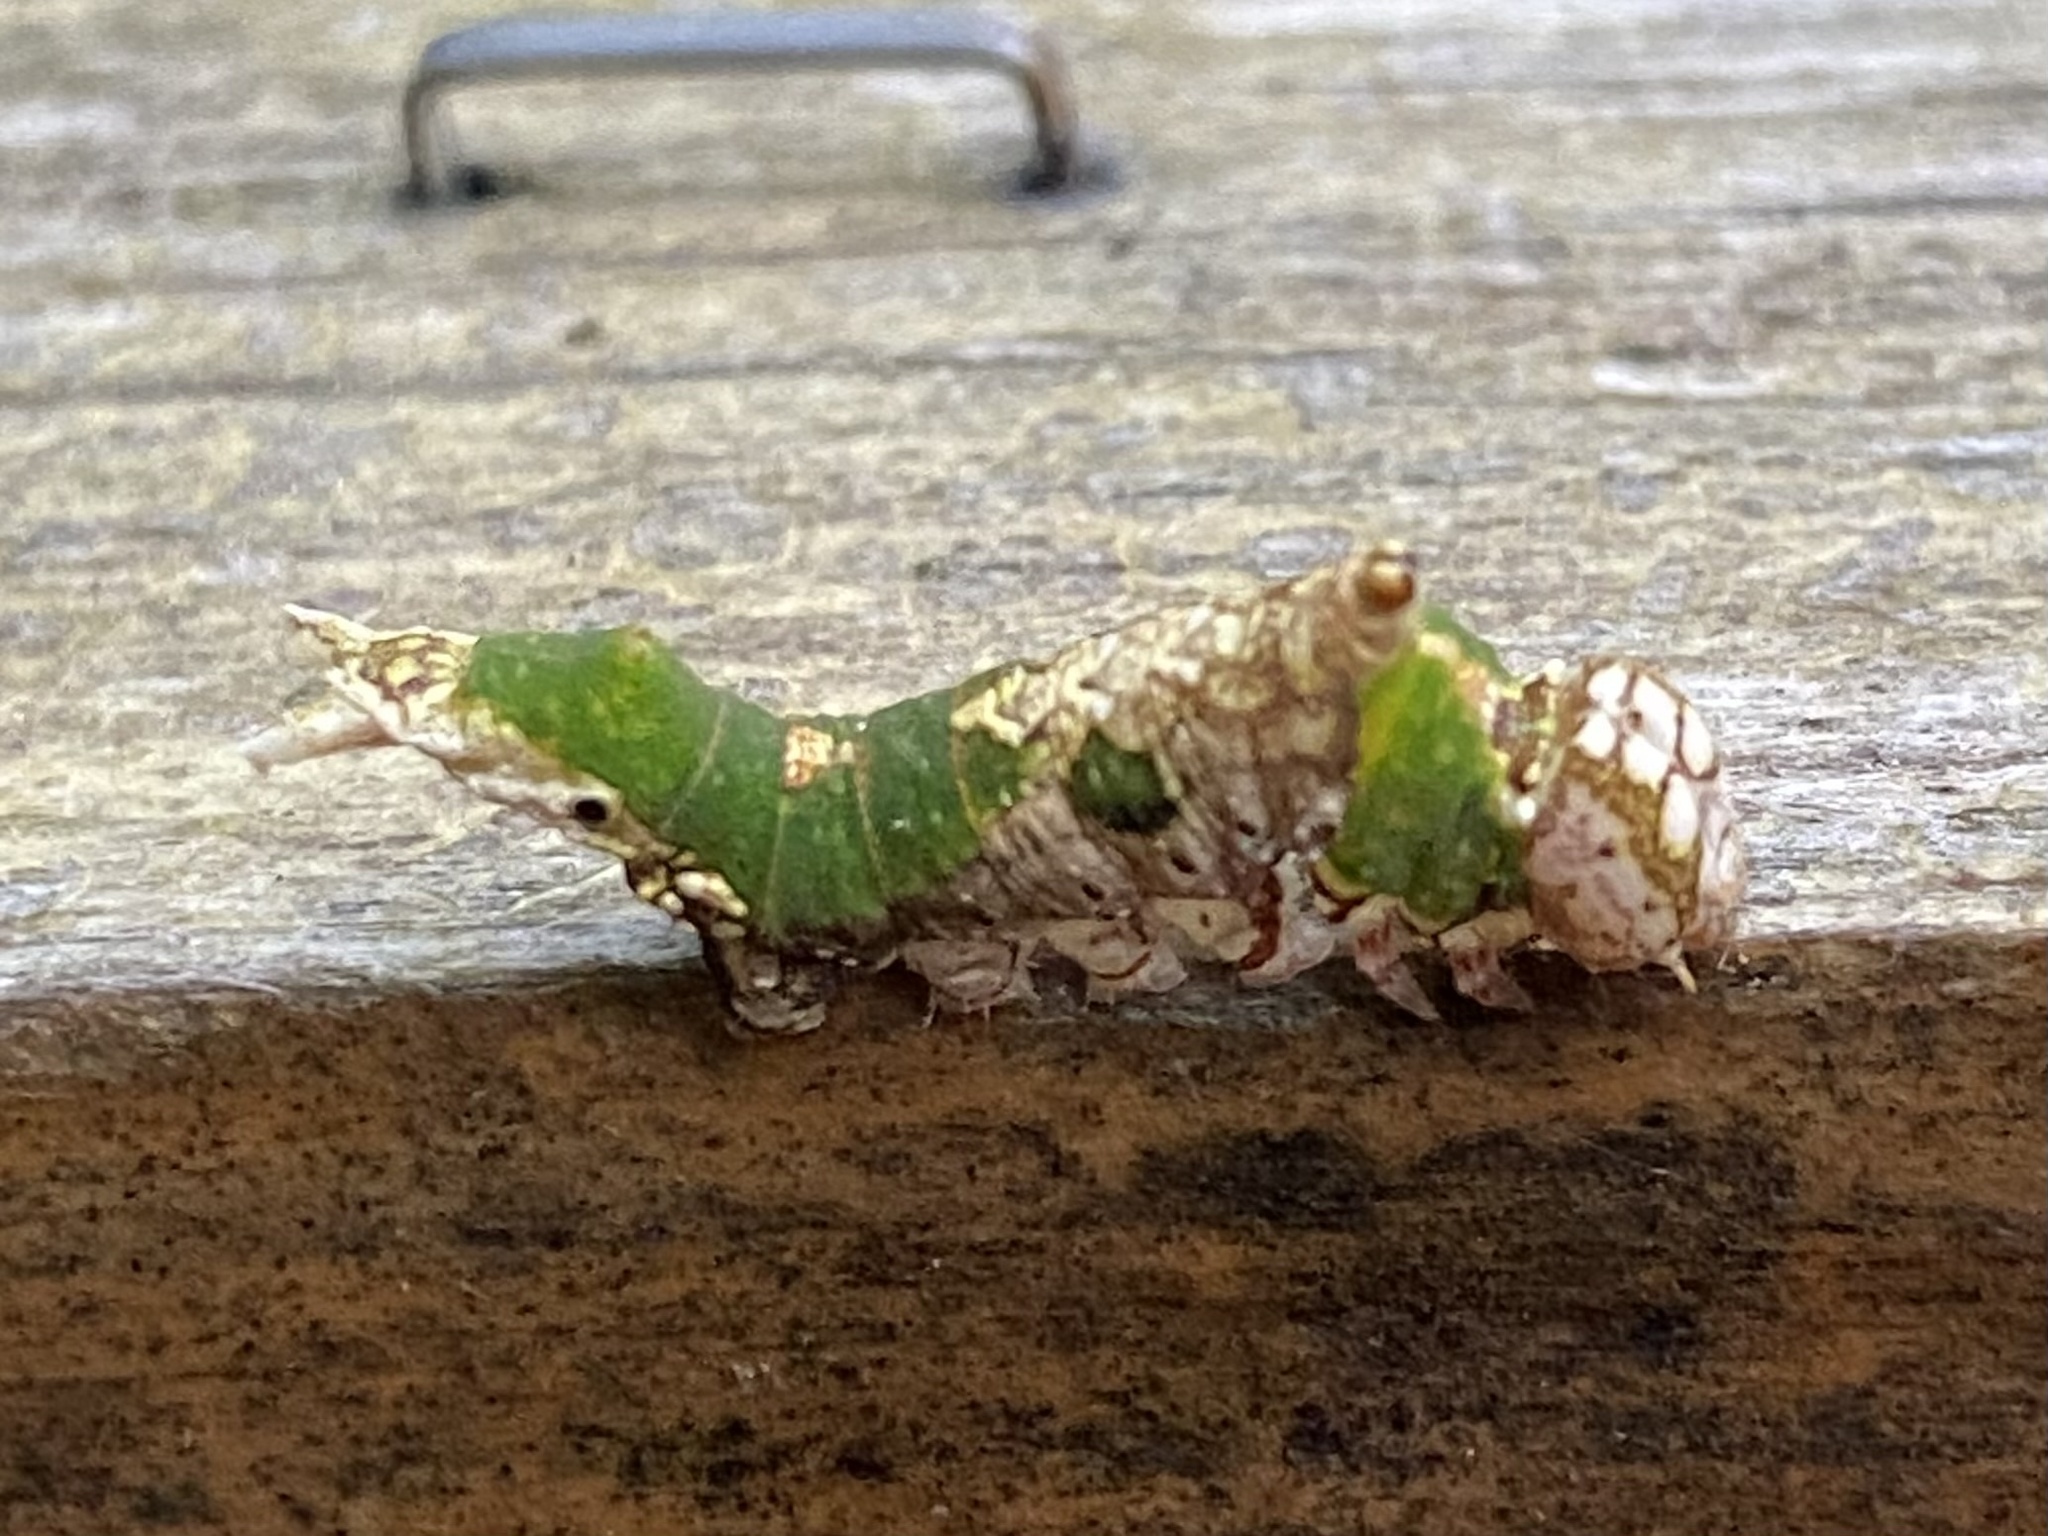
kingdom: Animalia
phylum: Arthropoda
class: Insecta
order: Lepidoptera
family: Notodontidae
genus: Oligocentria
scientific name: Oligocentria Ianassa lignicolor
